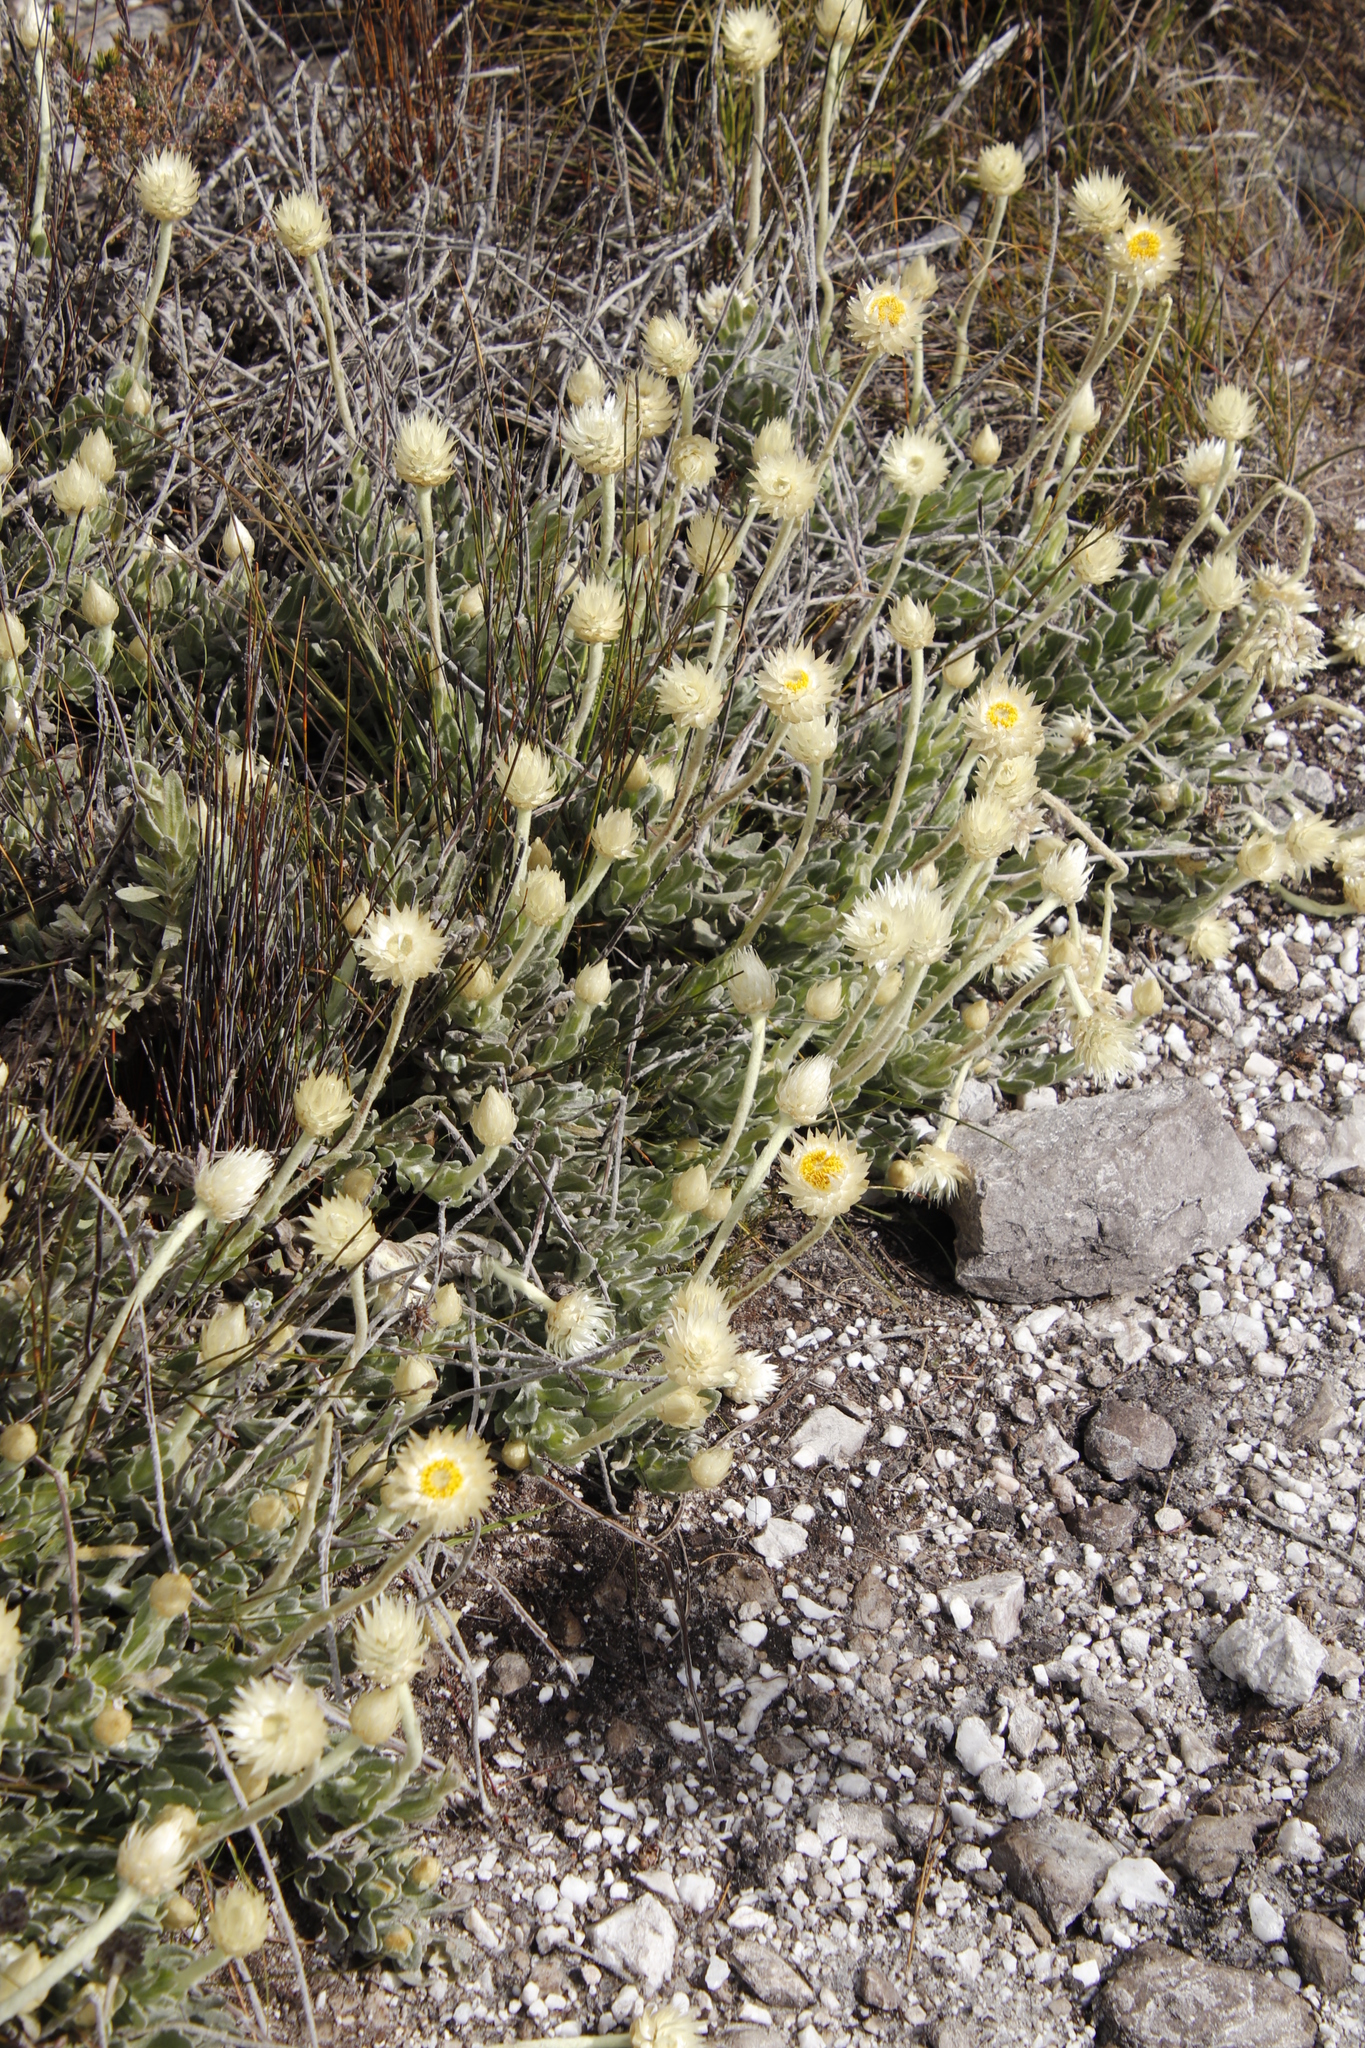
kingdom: Plantae
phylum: Tracheophyta
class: Magnoliopsida
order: Asterales
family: Asteraceae
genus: Syncarpha
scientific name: Syncarpha speciosissima
